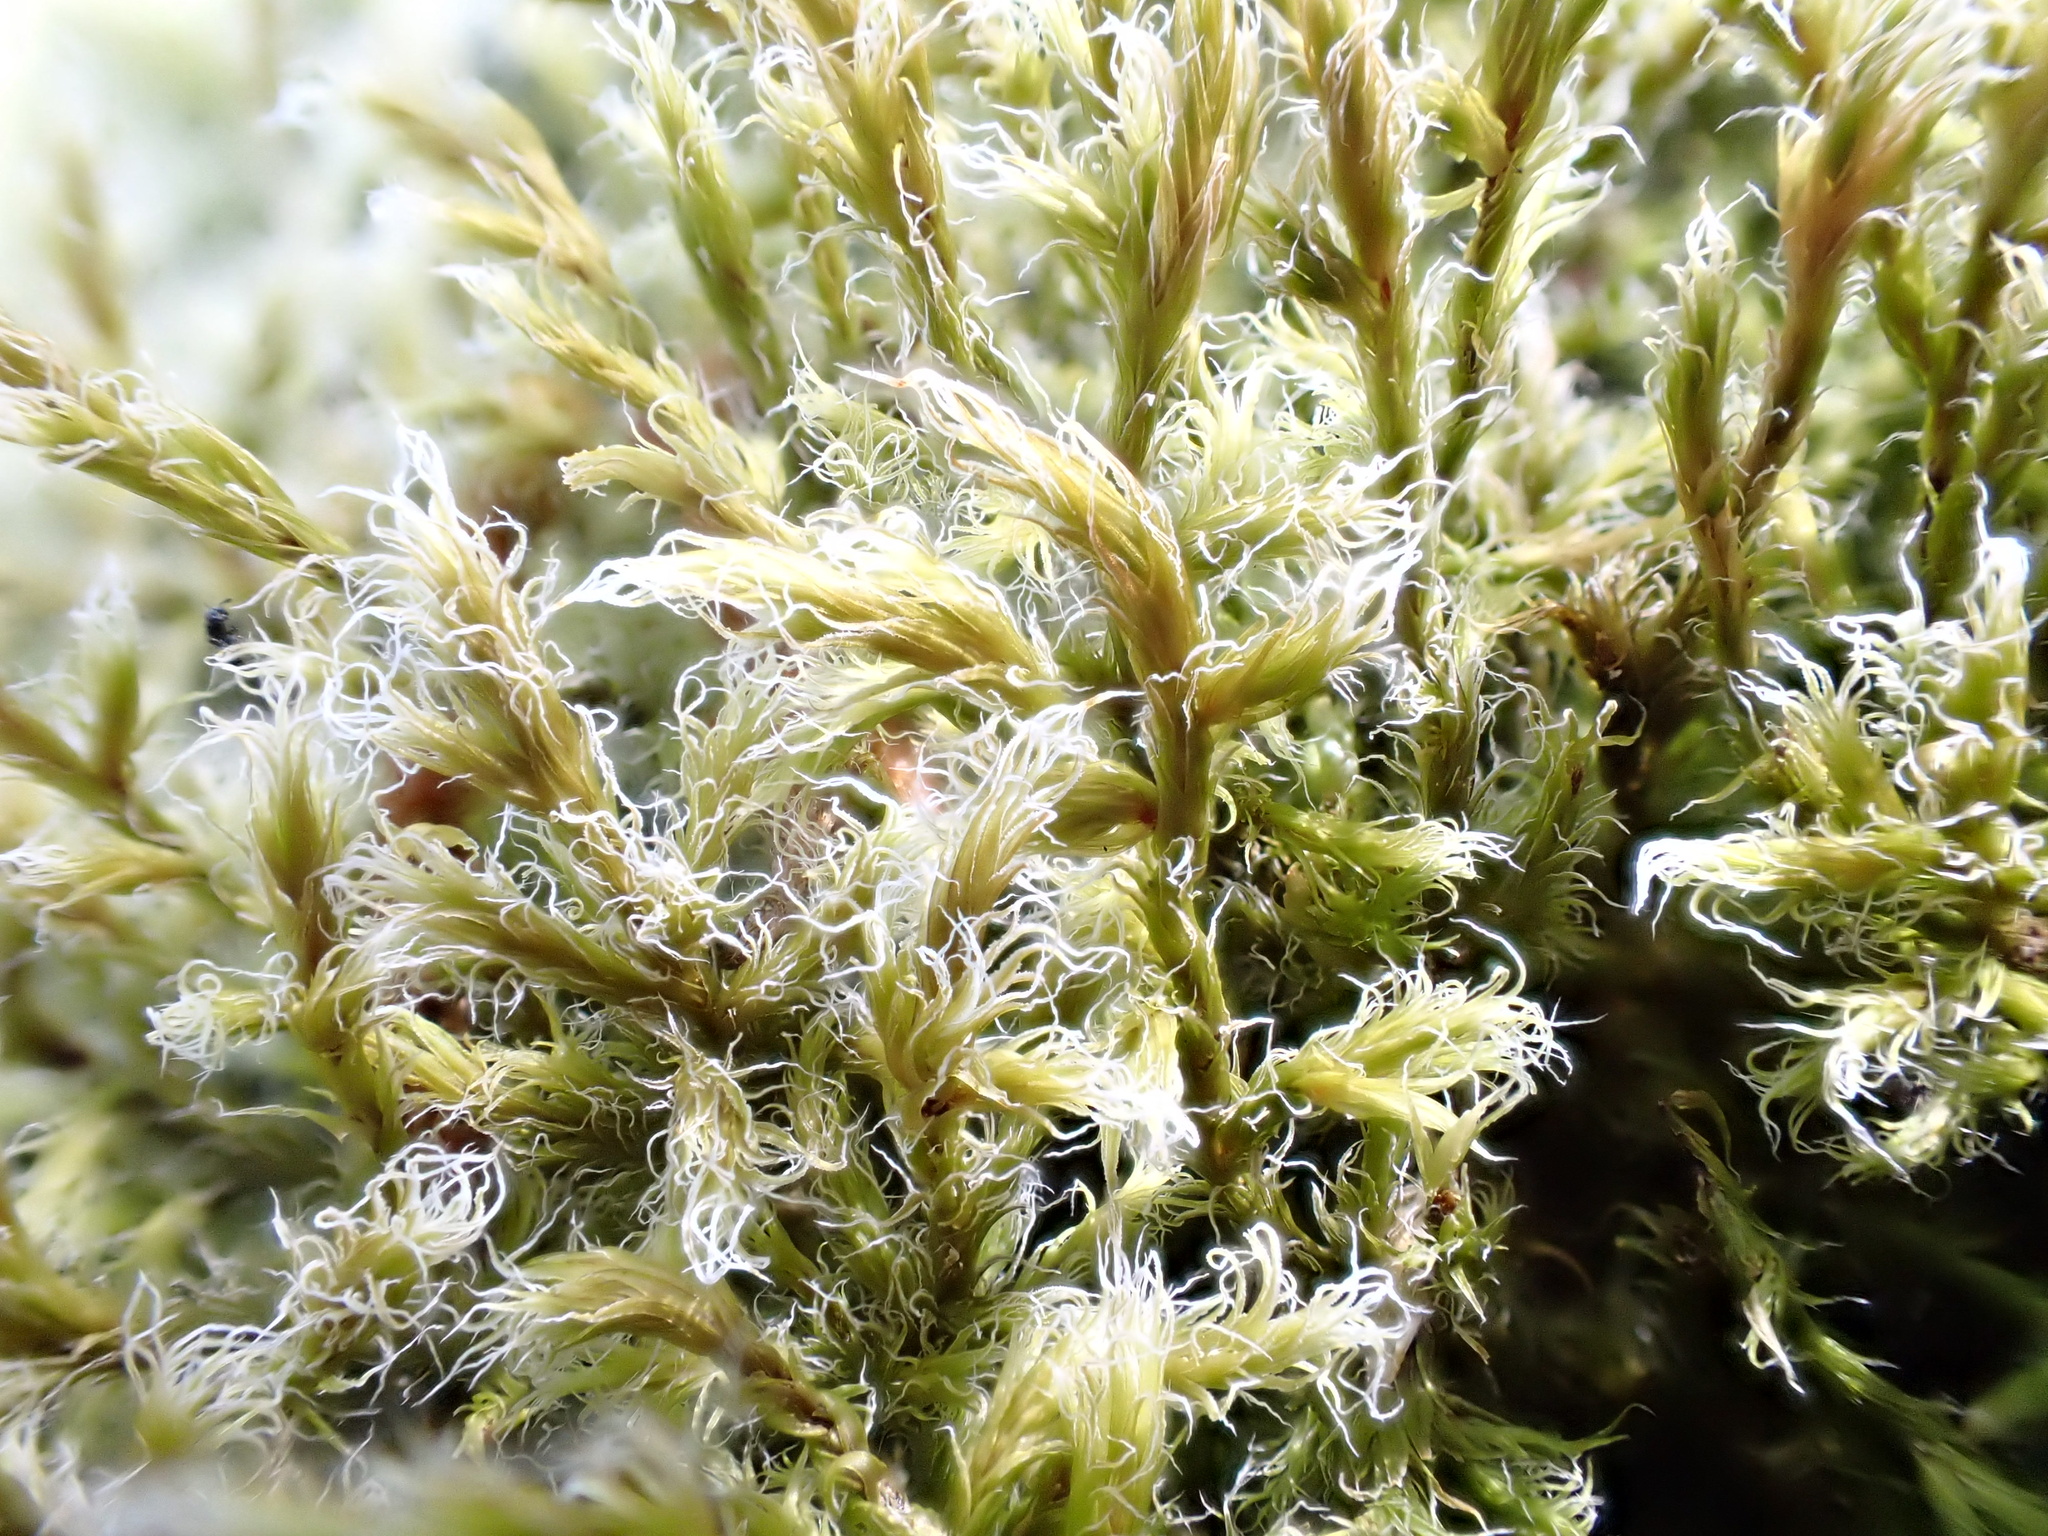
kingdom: Plantae
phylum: Bryophyta
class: Bryopsida
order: Grimmiales
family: Grimmiaceae
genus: Racomitrium
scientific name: Racomitrium lanuginosum
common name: Hoary rock moss
